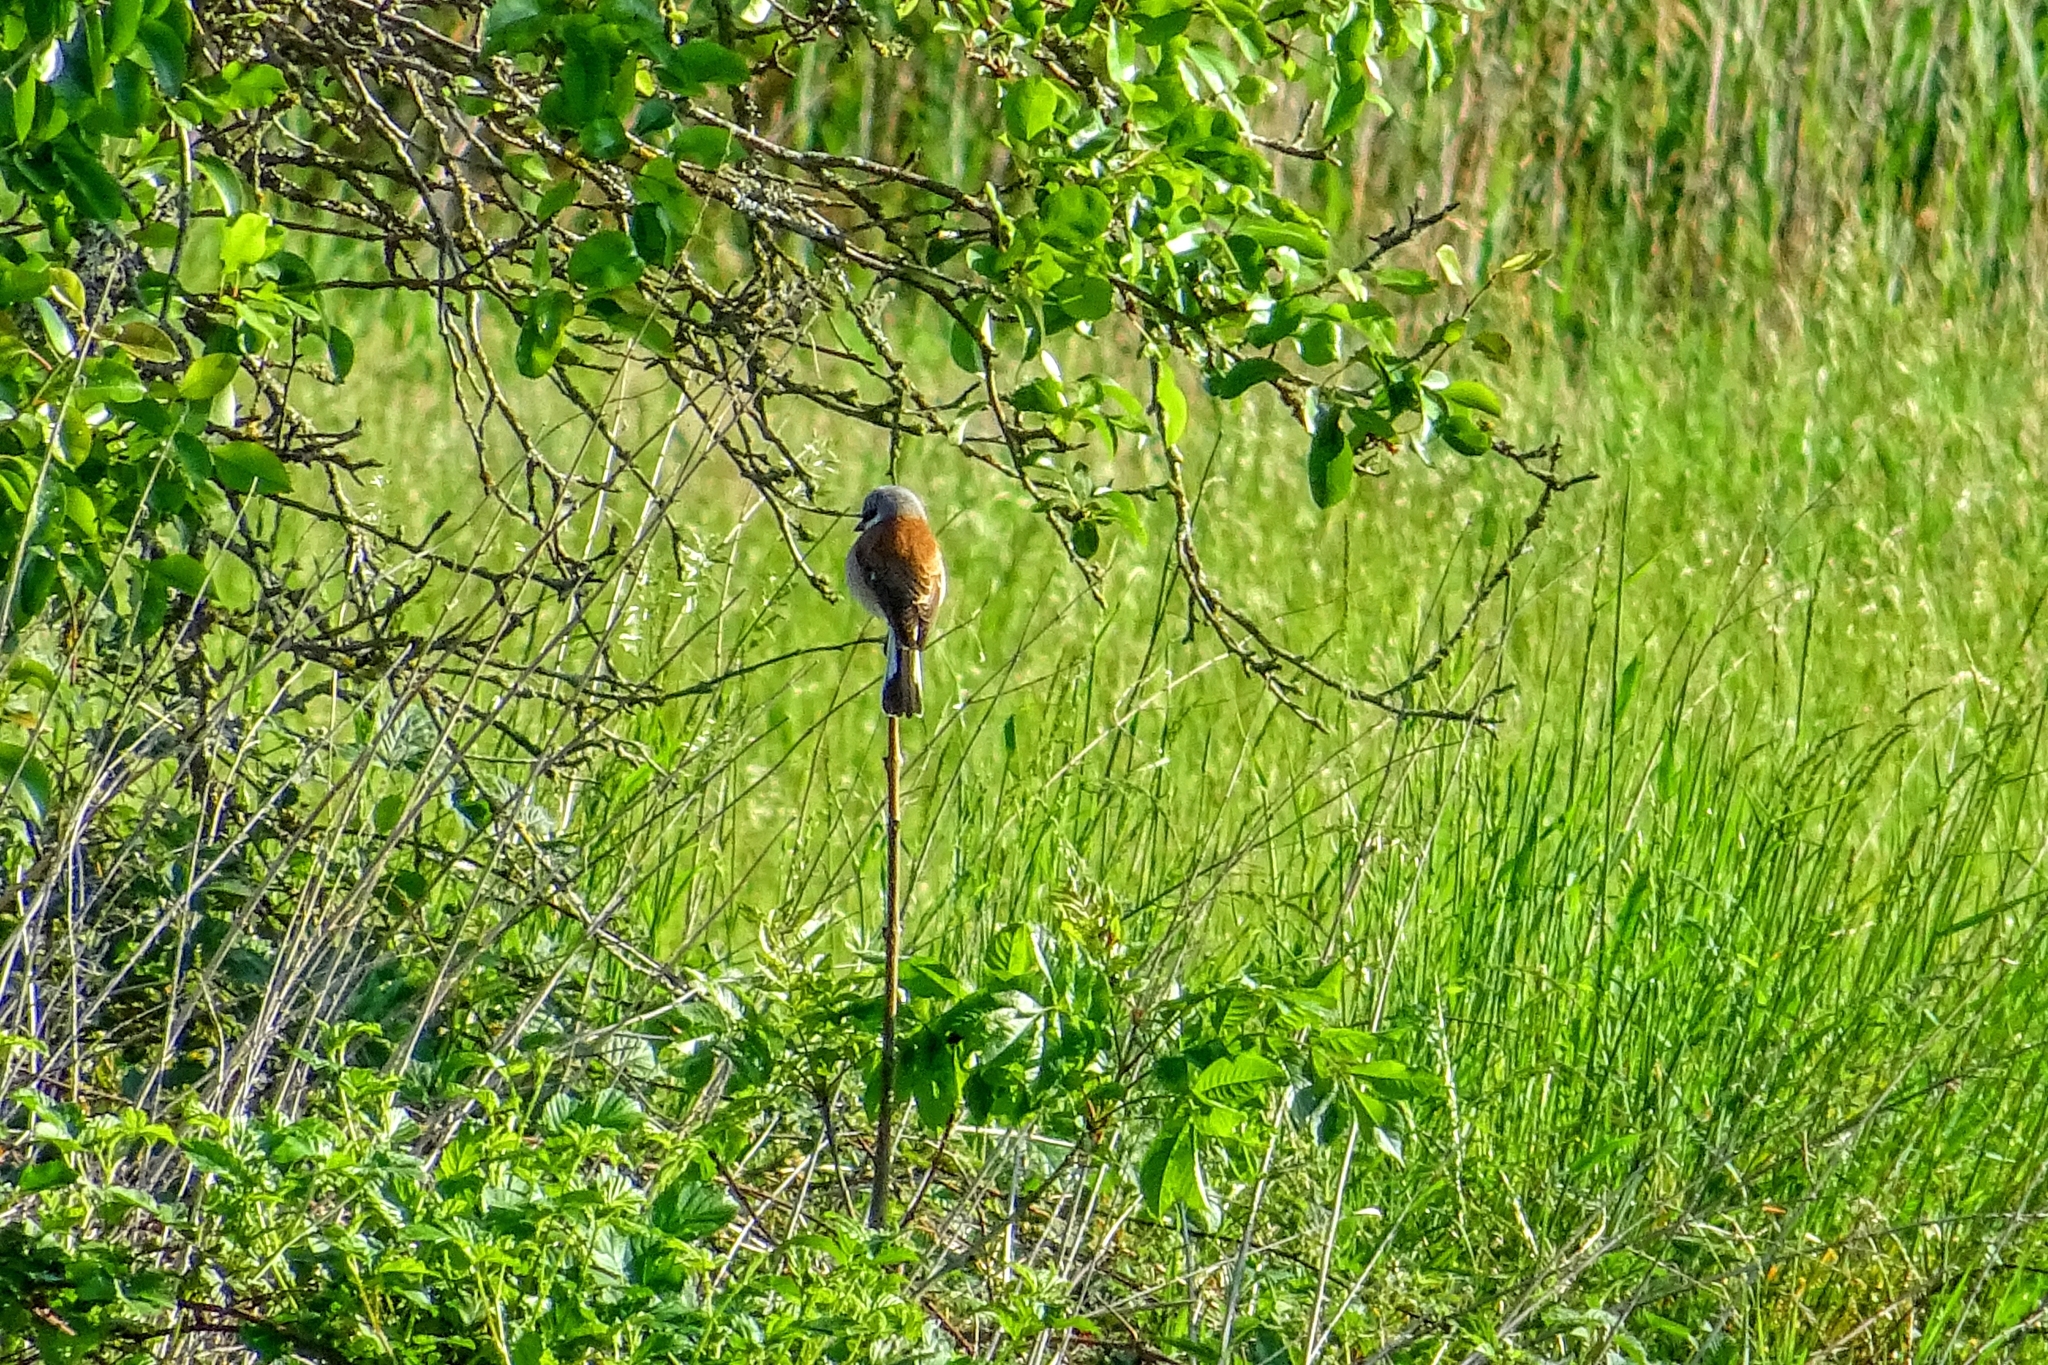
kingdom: Animalia
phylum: Chordata
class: Aves
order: Passeriformes
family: Laniidae
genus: Lanius
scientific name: Lanius collurio
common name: Red-backed shrike
